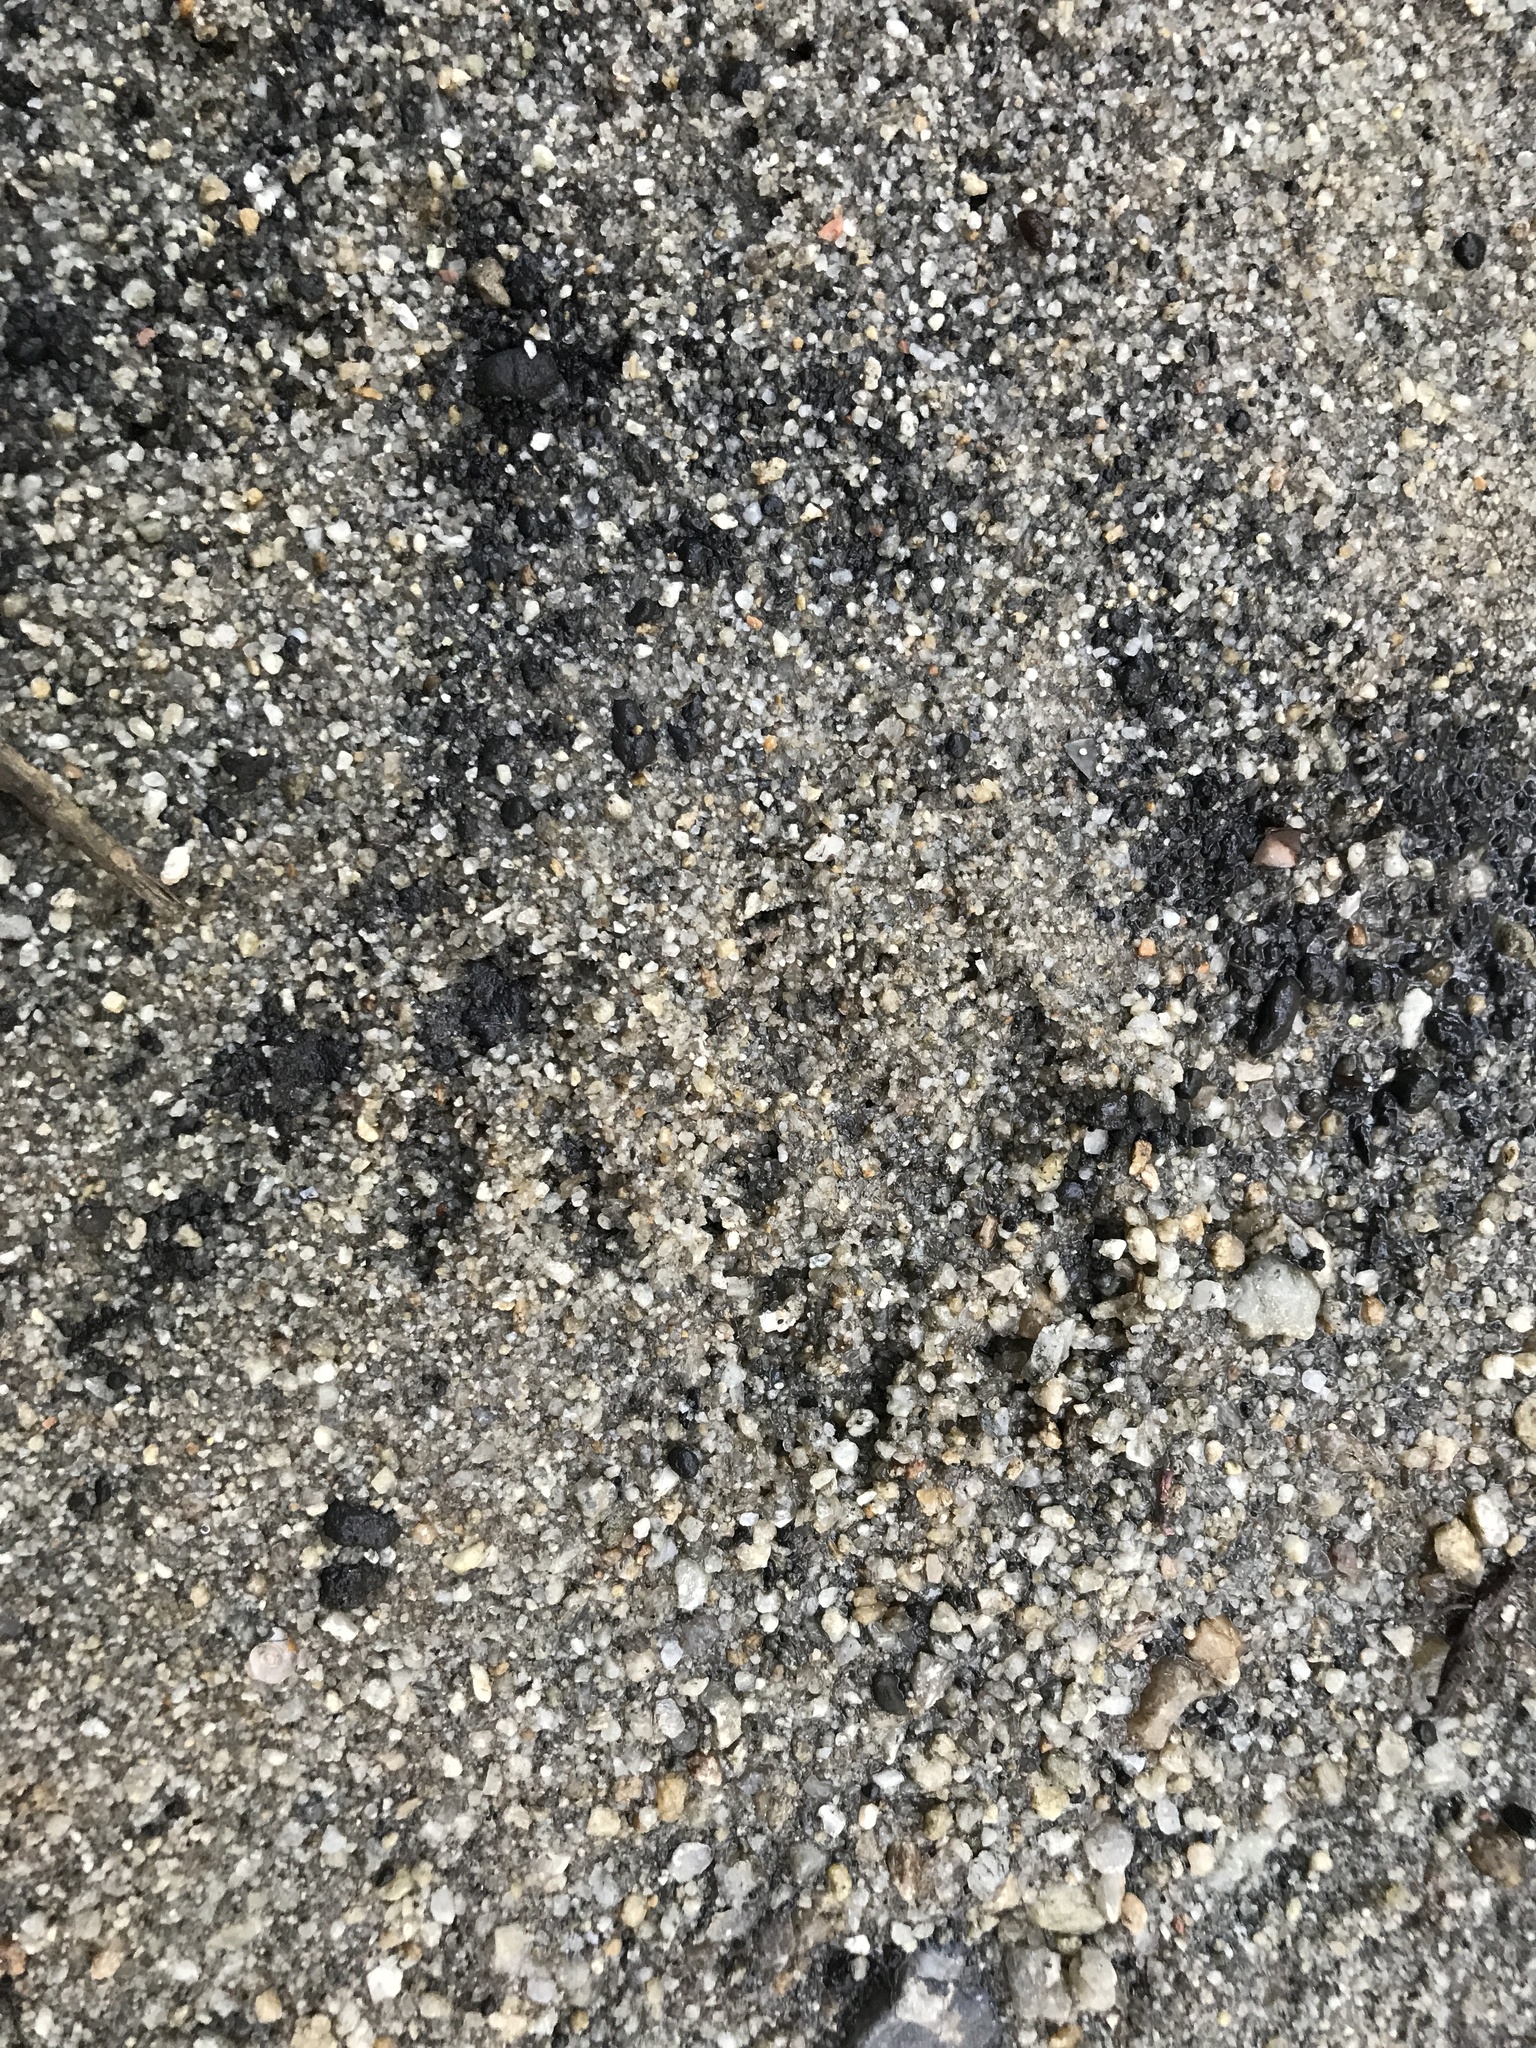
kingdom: Animalia
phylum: Chordata
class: Mammalia
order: Carnivora
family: Procyonidae
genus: Procyon
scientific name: Procyon cancrivorus
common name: Crab-eating raccoon
